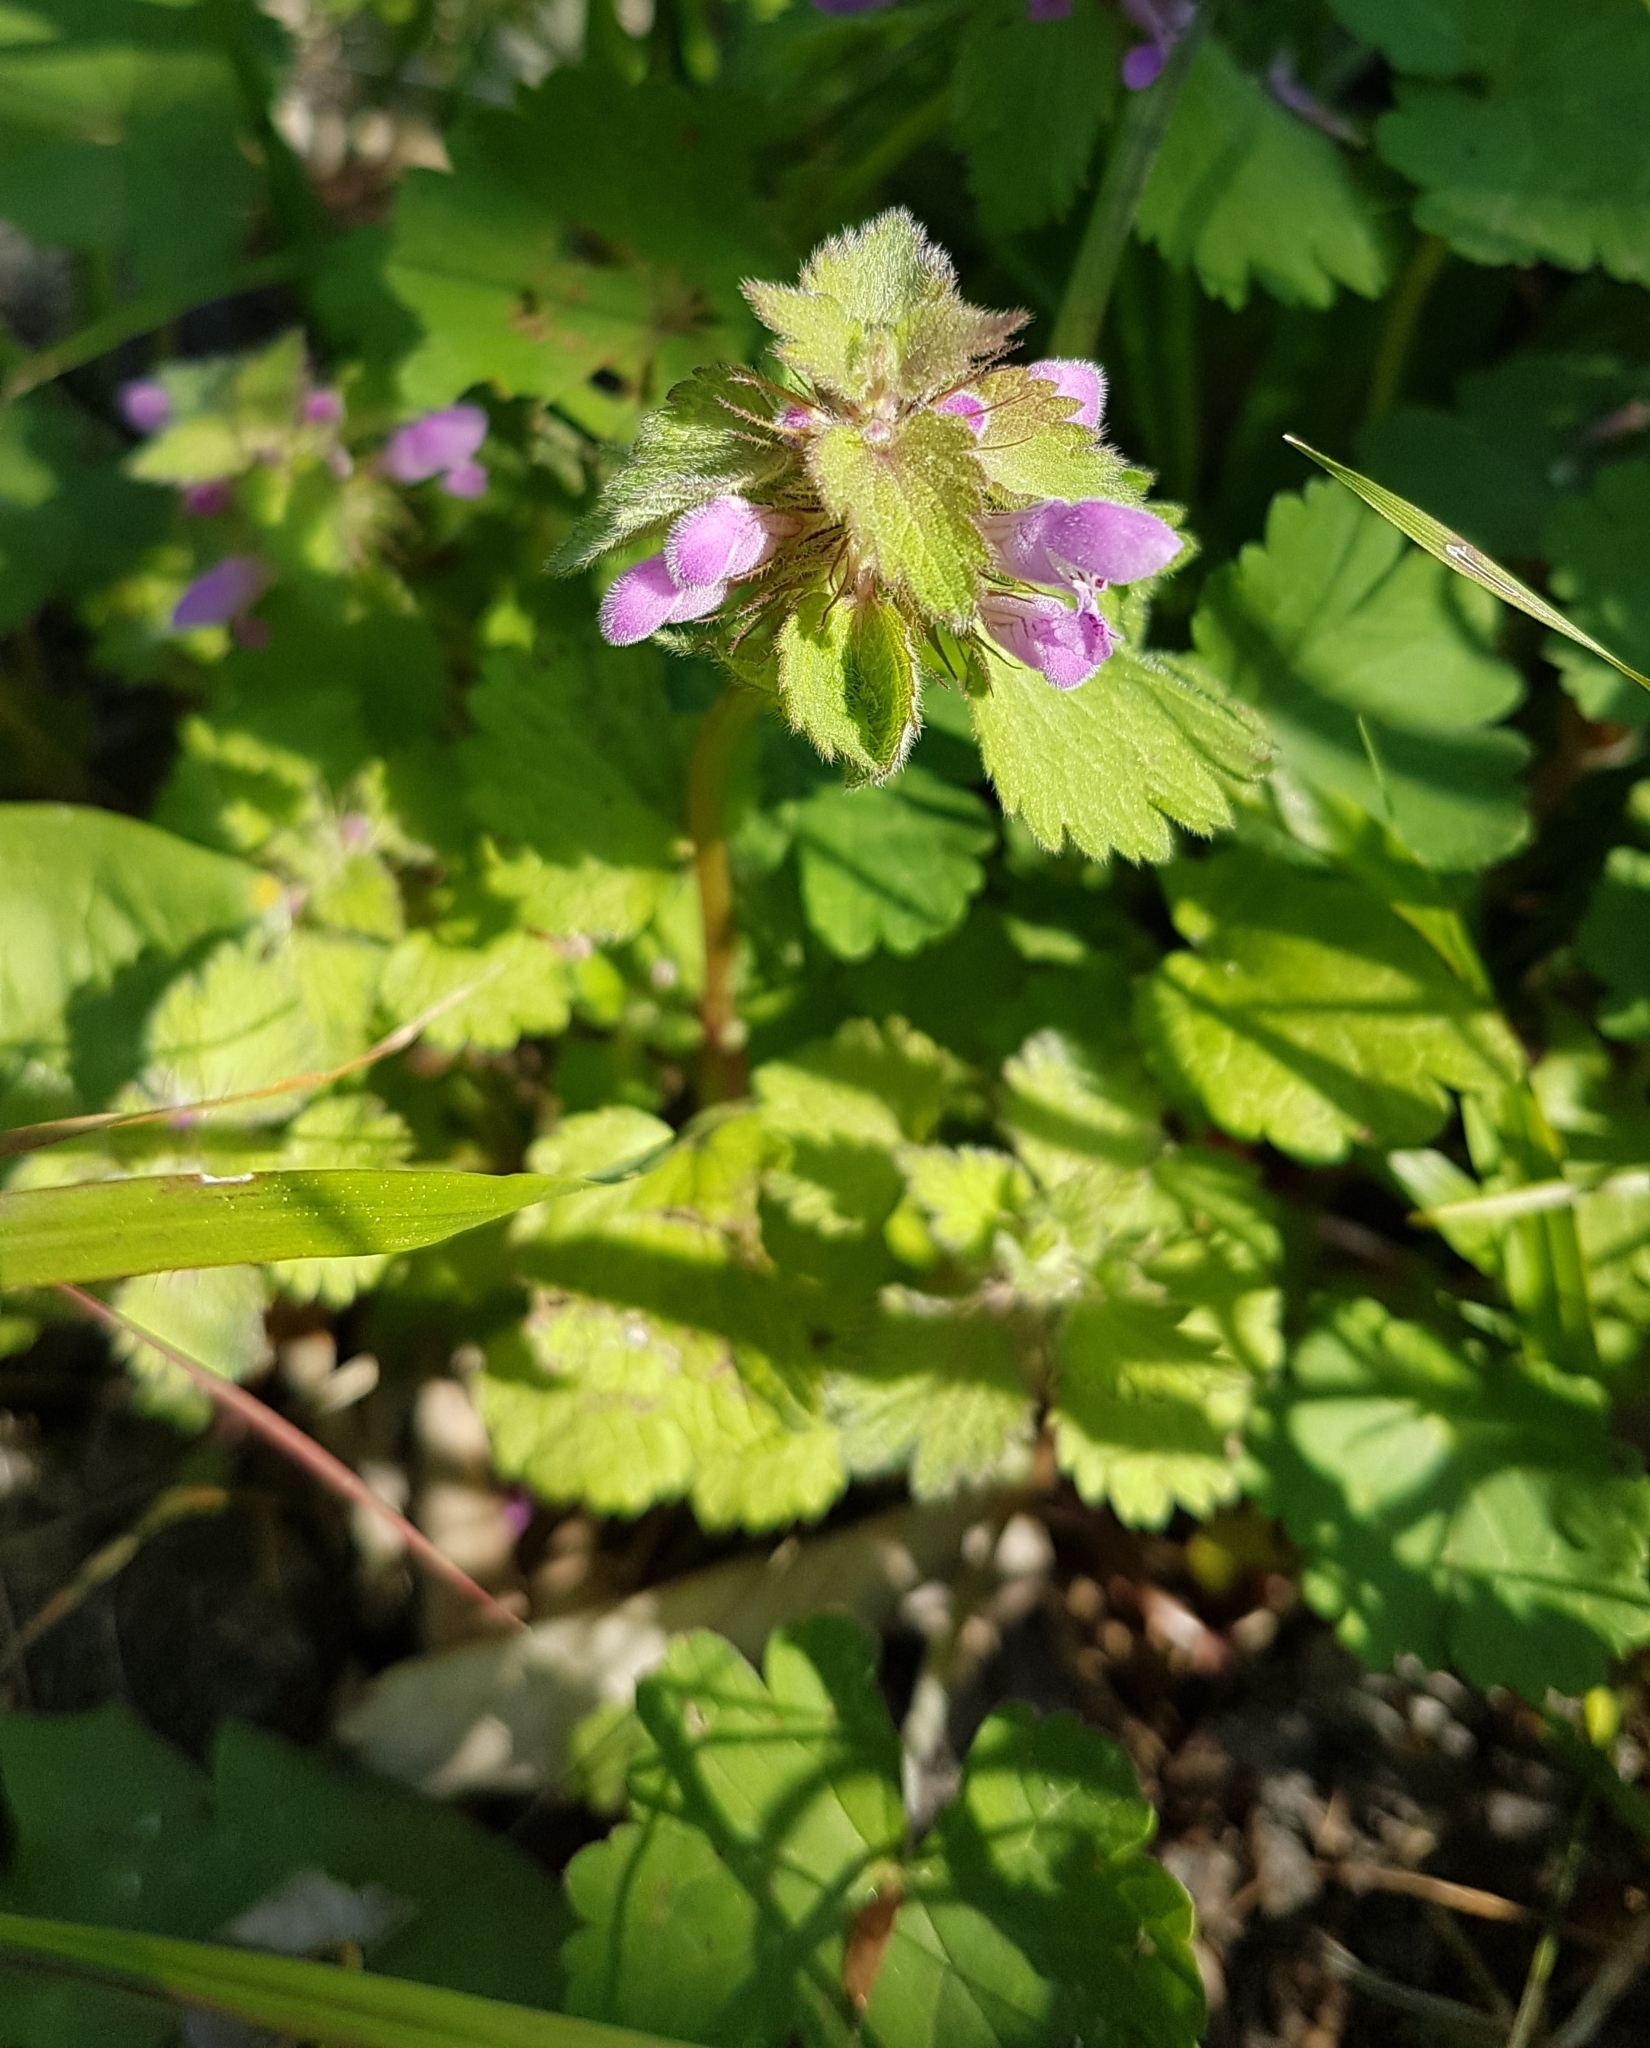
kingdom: Plantae
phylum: Tracheophyta
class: Magnoliopsida
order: Lamiales
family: Lamiaceae
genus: Lamium
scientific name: Lamium purpureum
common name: Red dead-nettle
